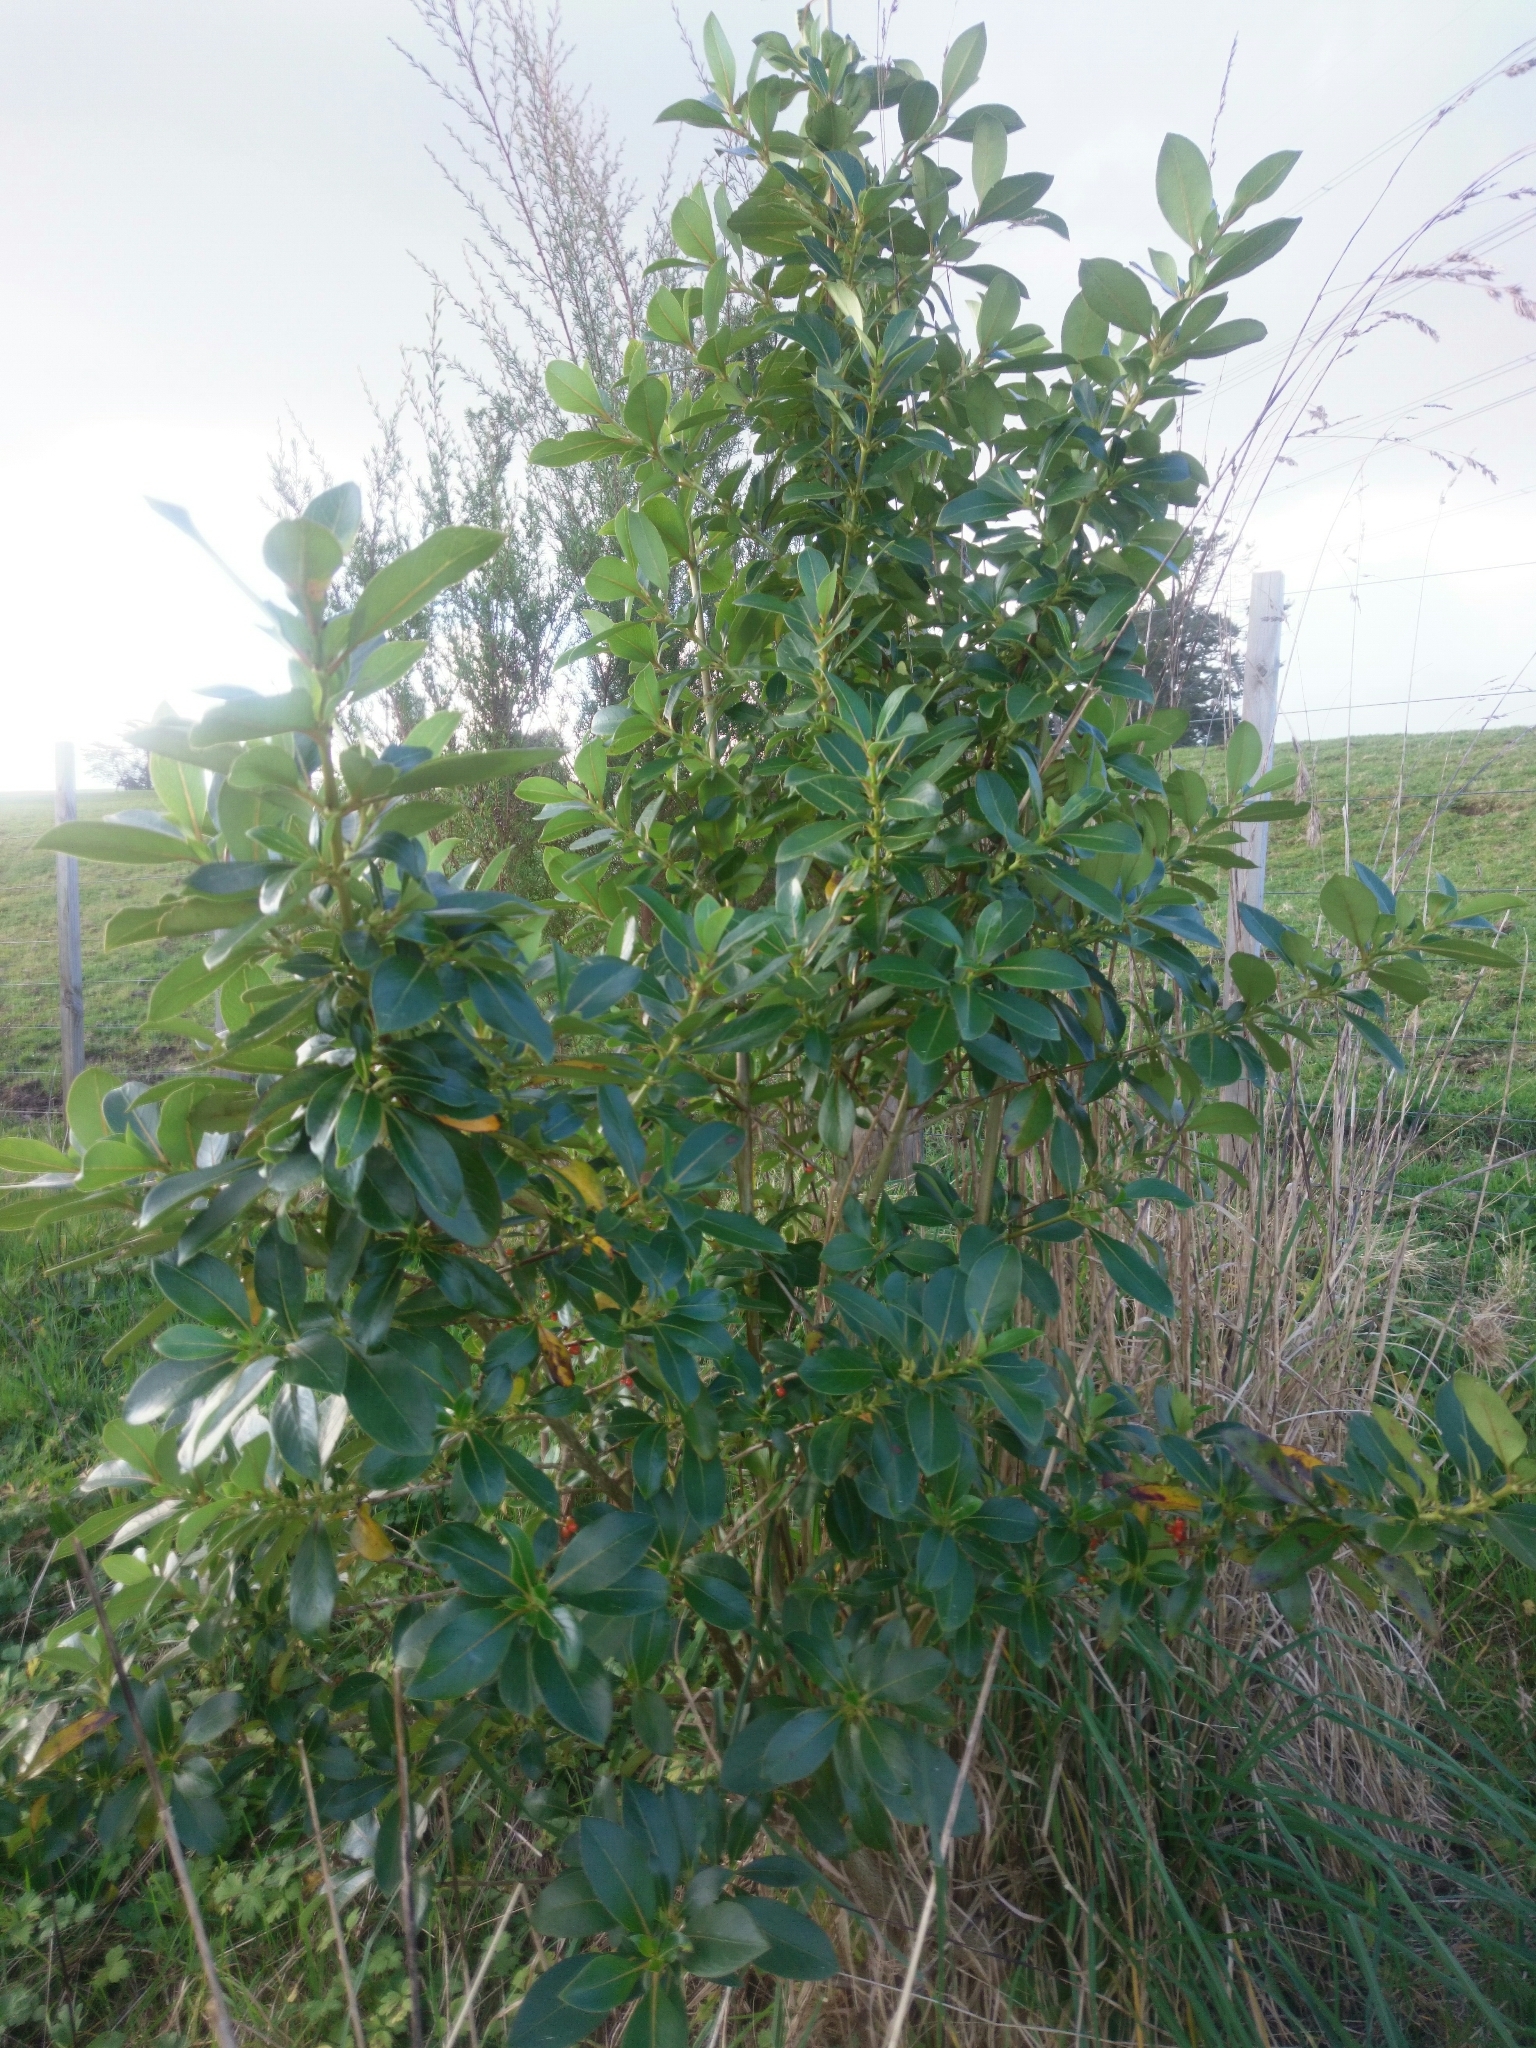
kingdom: Plantae
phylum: Tracheophyta
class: Magnoliopsida
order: Gentianales
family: Rubiaceae
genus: Coprosma
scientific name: Coprosma robusta
